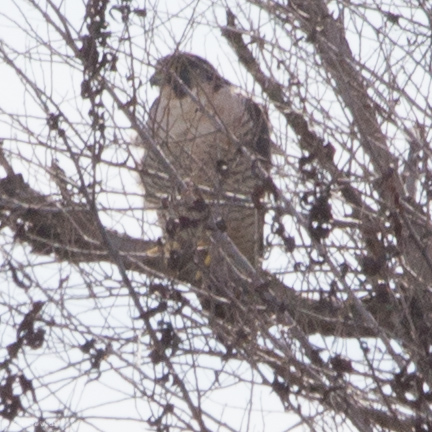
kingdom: Animalia
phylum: Chordata
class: Aves
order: Falconiformes
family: Falconidae
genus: Falco
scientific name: Falco peregrinus
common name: Peregrine falcon
